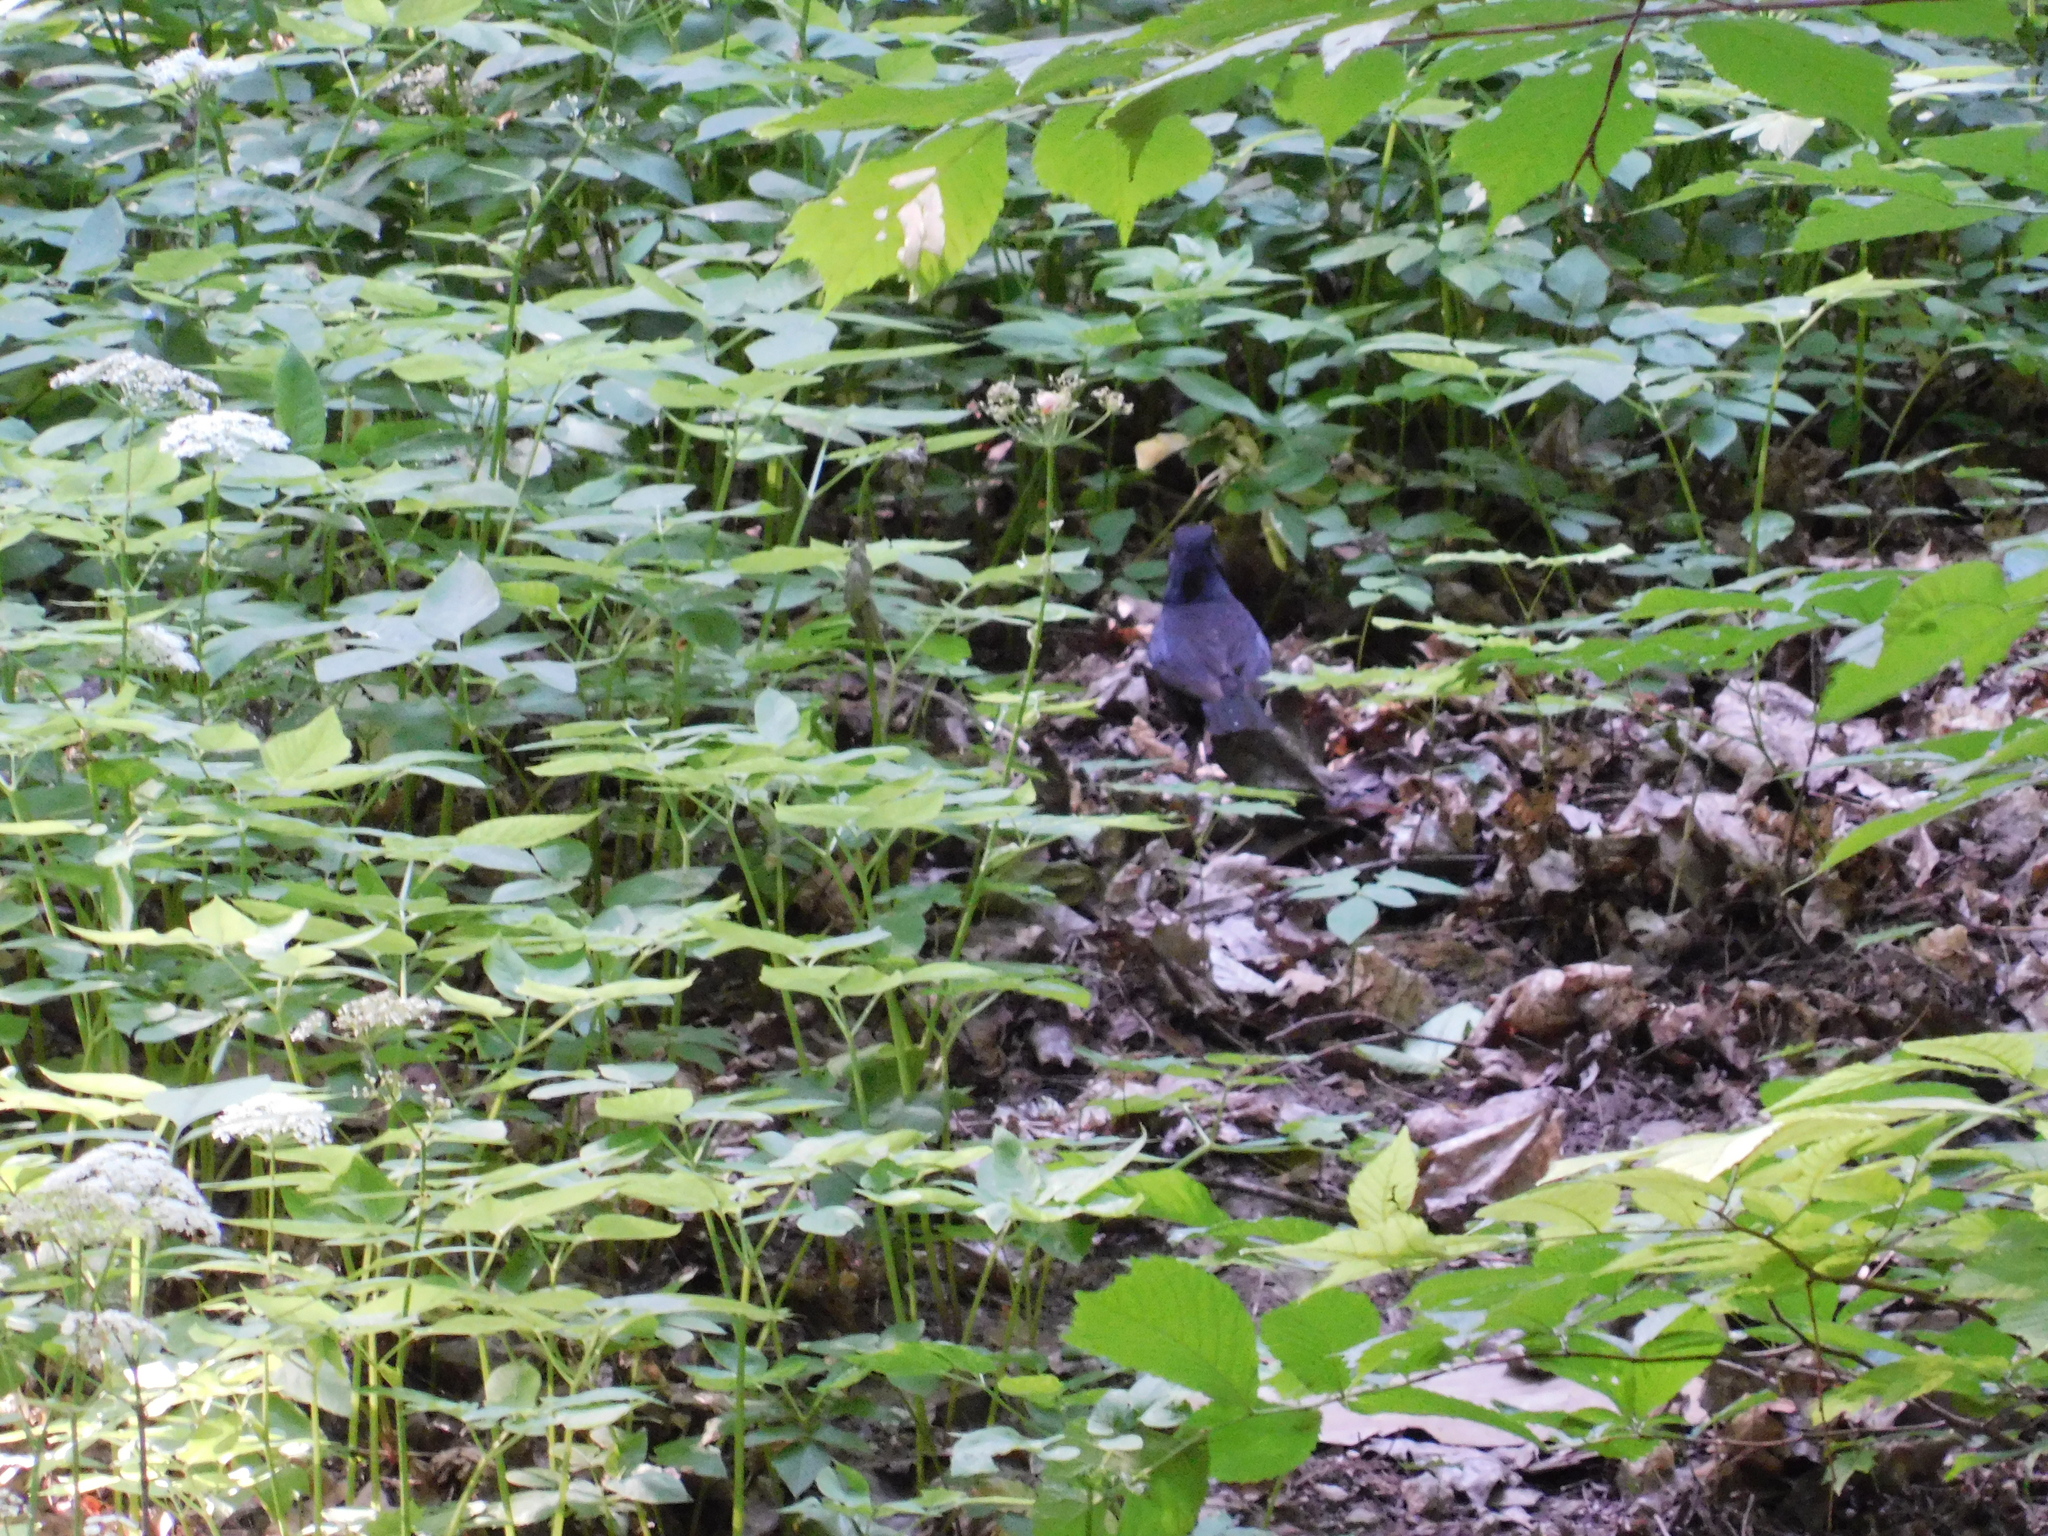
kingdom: Animalia
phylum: Chordata
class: Aves
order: Passeriformes
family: Turdidae
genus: Turdus
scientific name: Turdus merula
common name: Common blackbird
